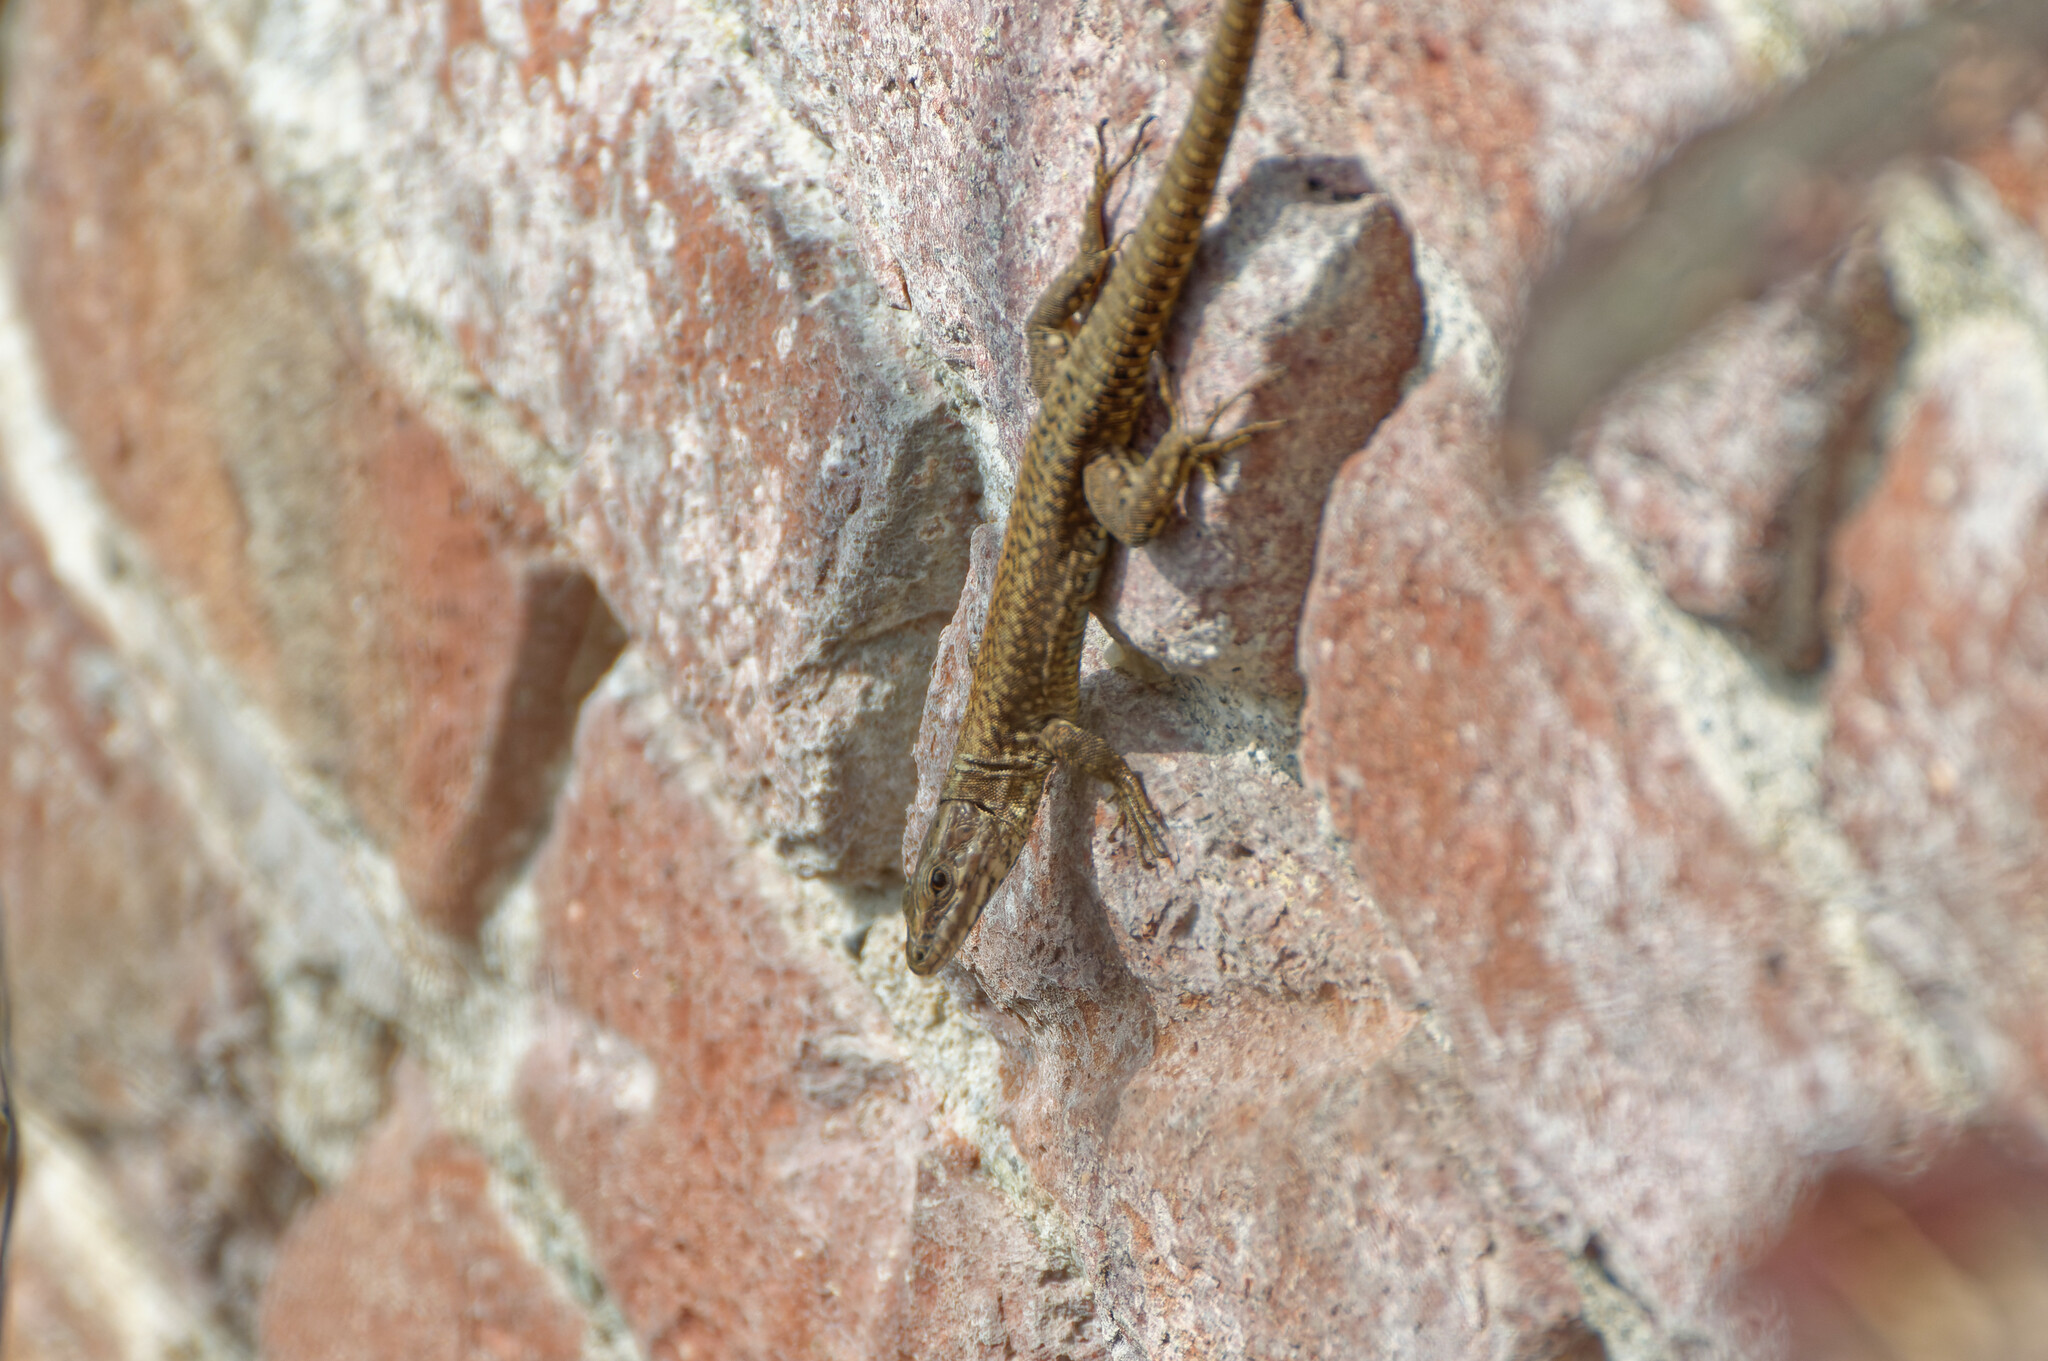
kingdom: Animalia
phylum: Chordata
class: Squamata
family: Lacertidae
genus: Podarcis
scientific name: Podarcis muralis
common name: Common wall lizard
